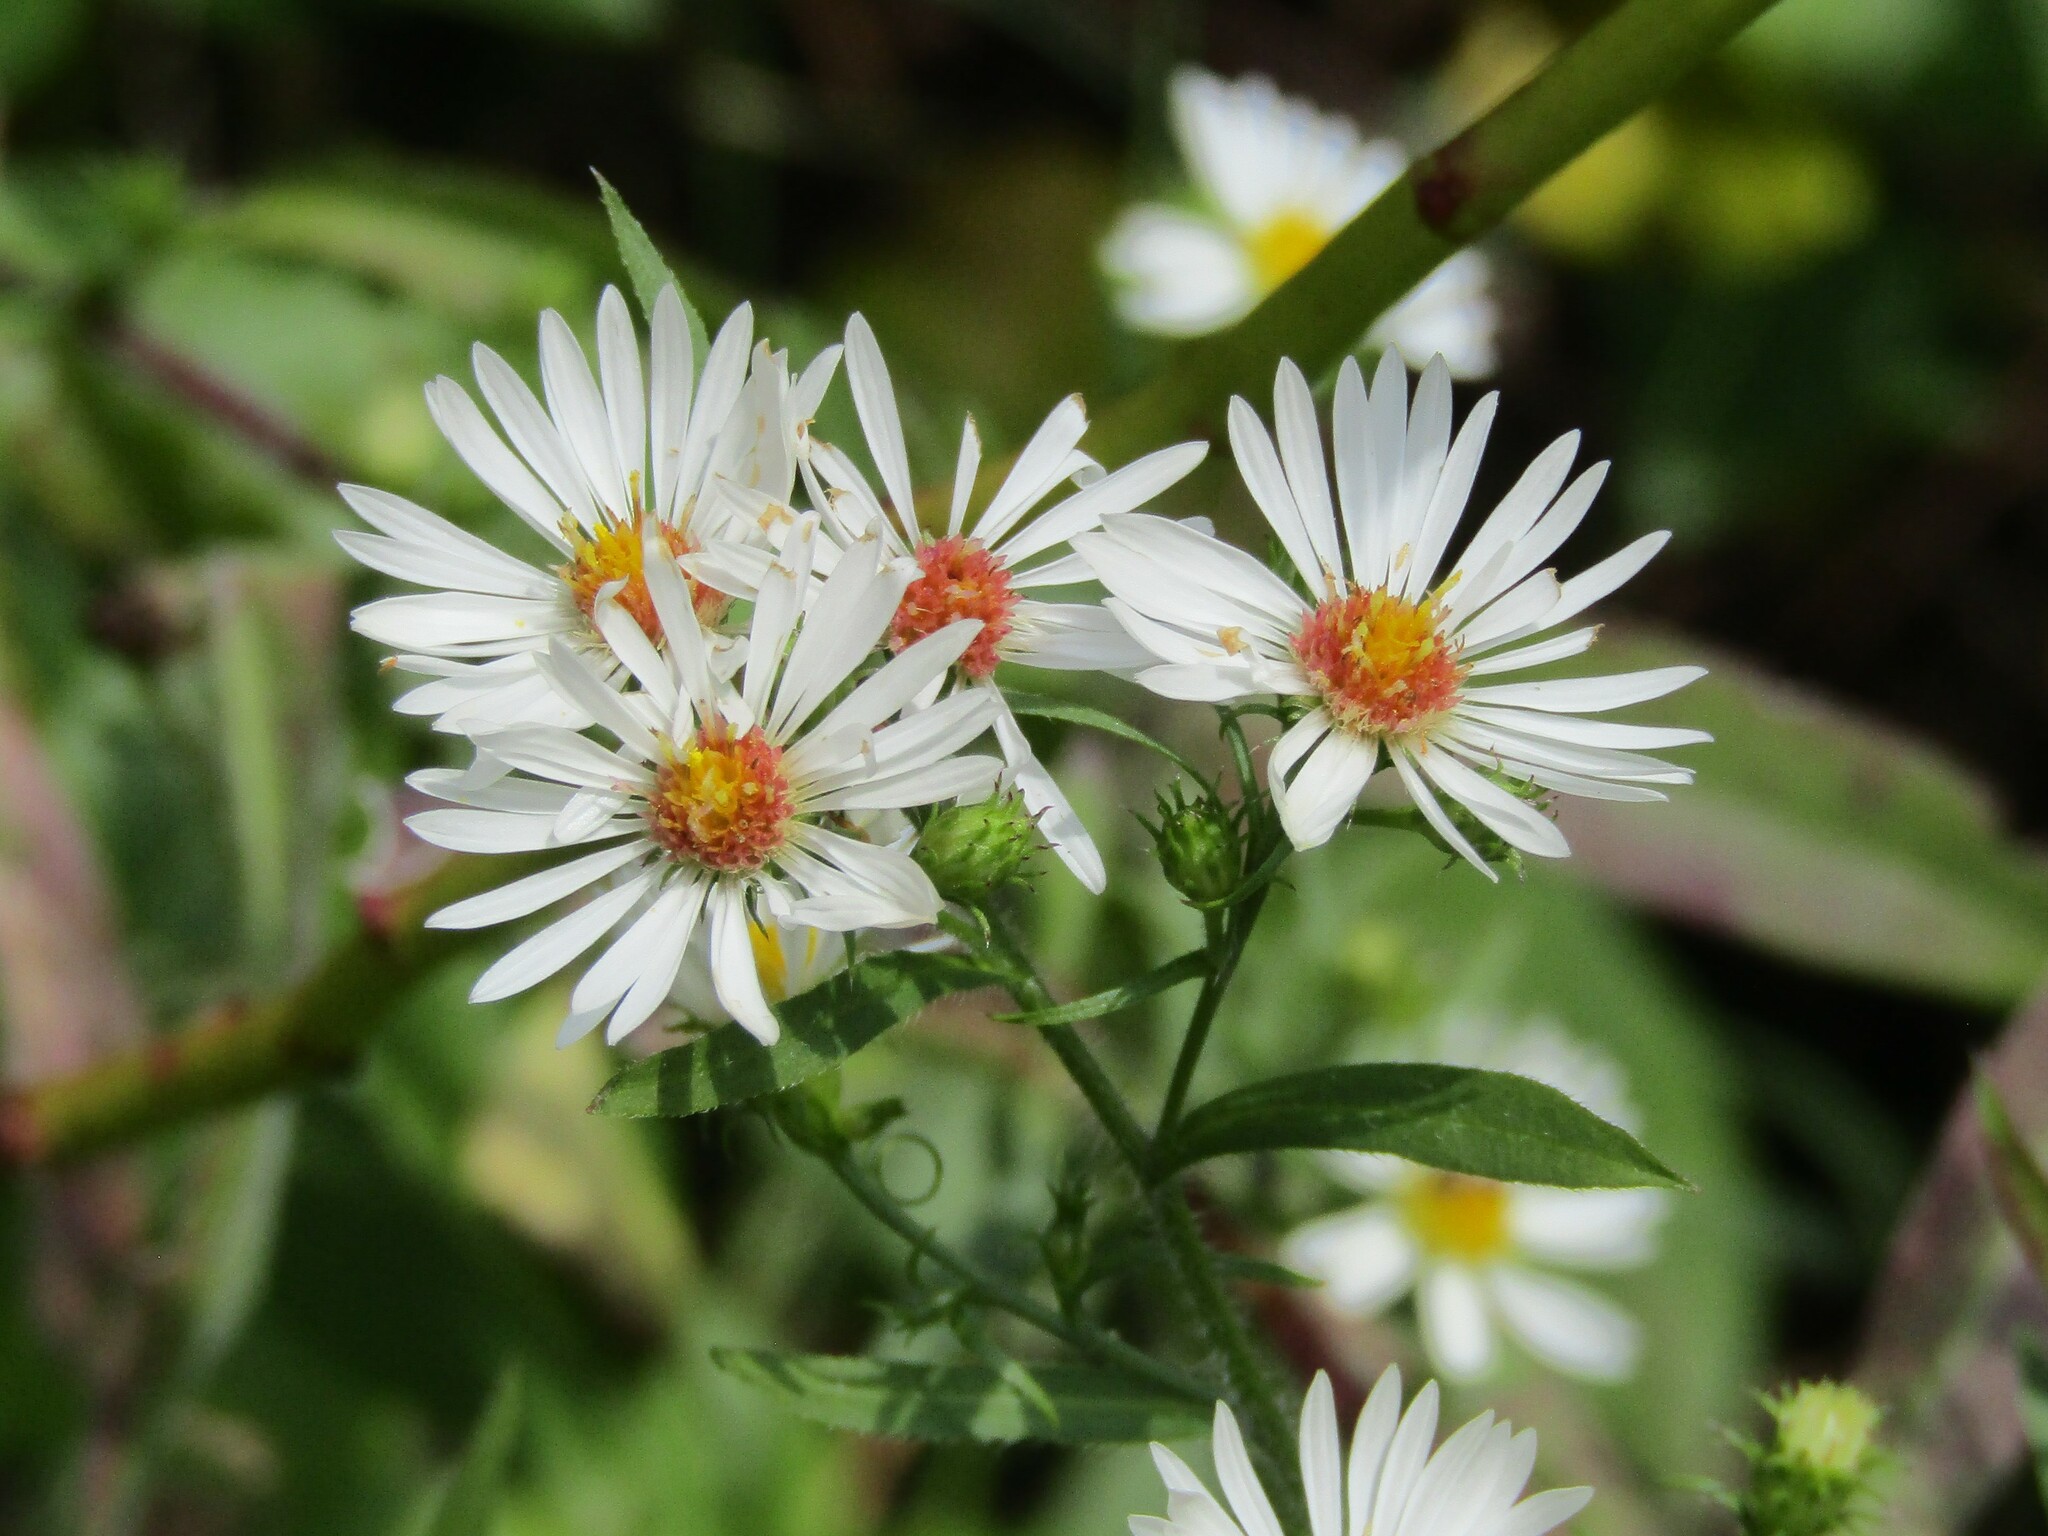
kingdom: Plantae
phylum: Tracheophyta
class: Magnoliopsida
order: Asterales
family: Asteraceae
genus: Symphyotrichum
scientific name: Symphyotrichum pilosum
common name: Awl aster
